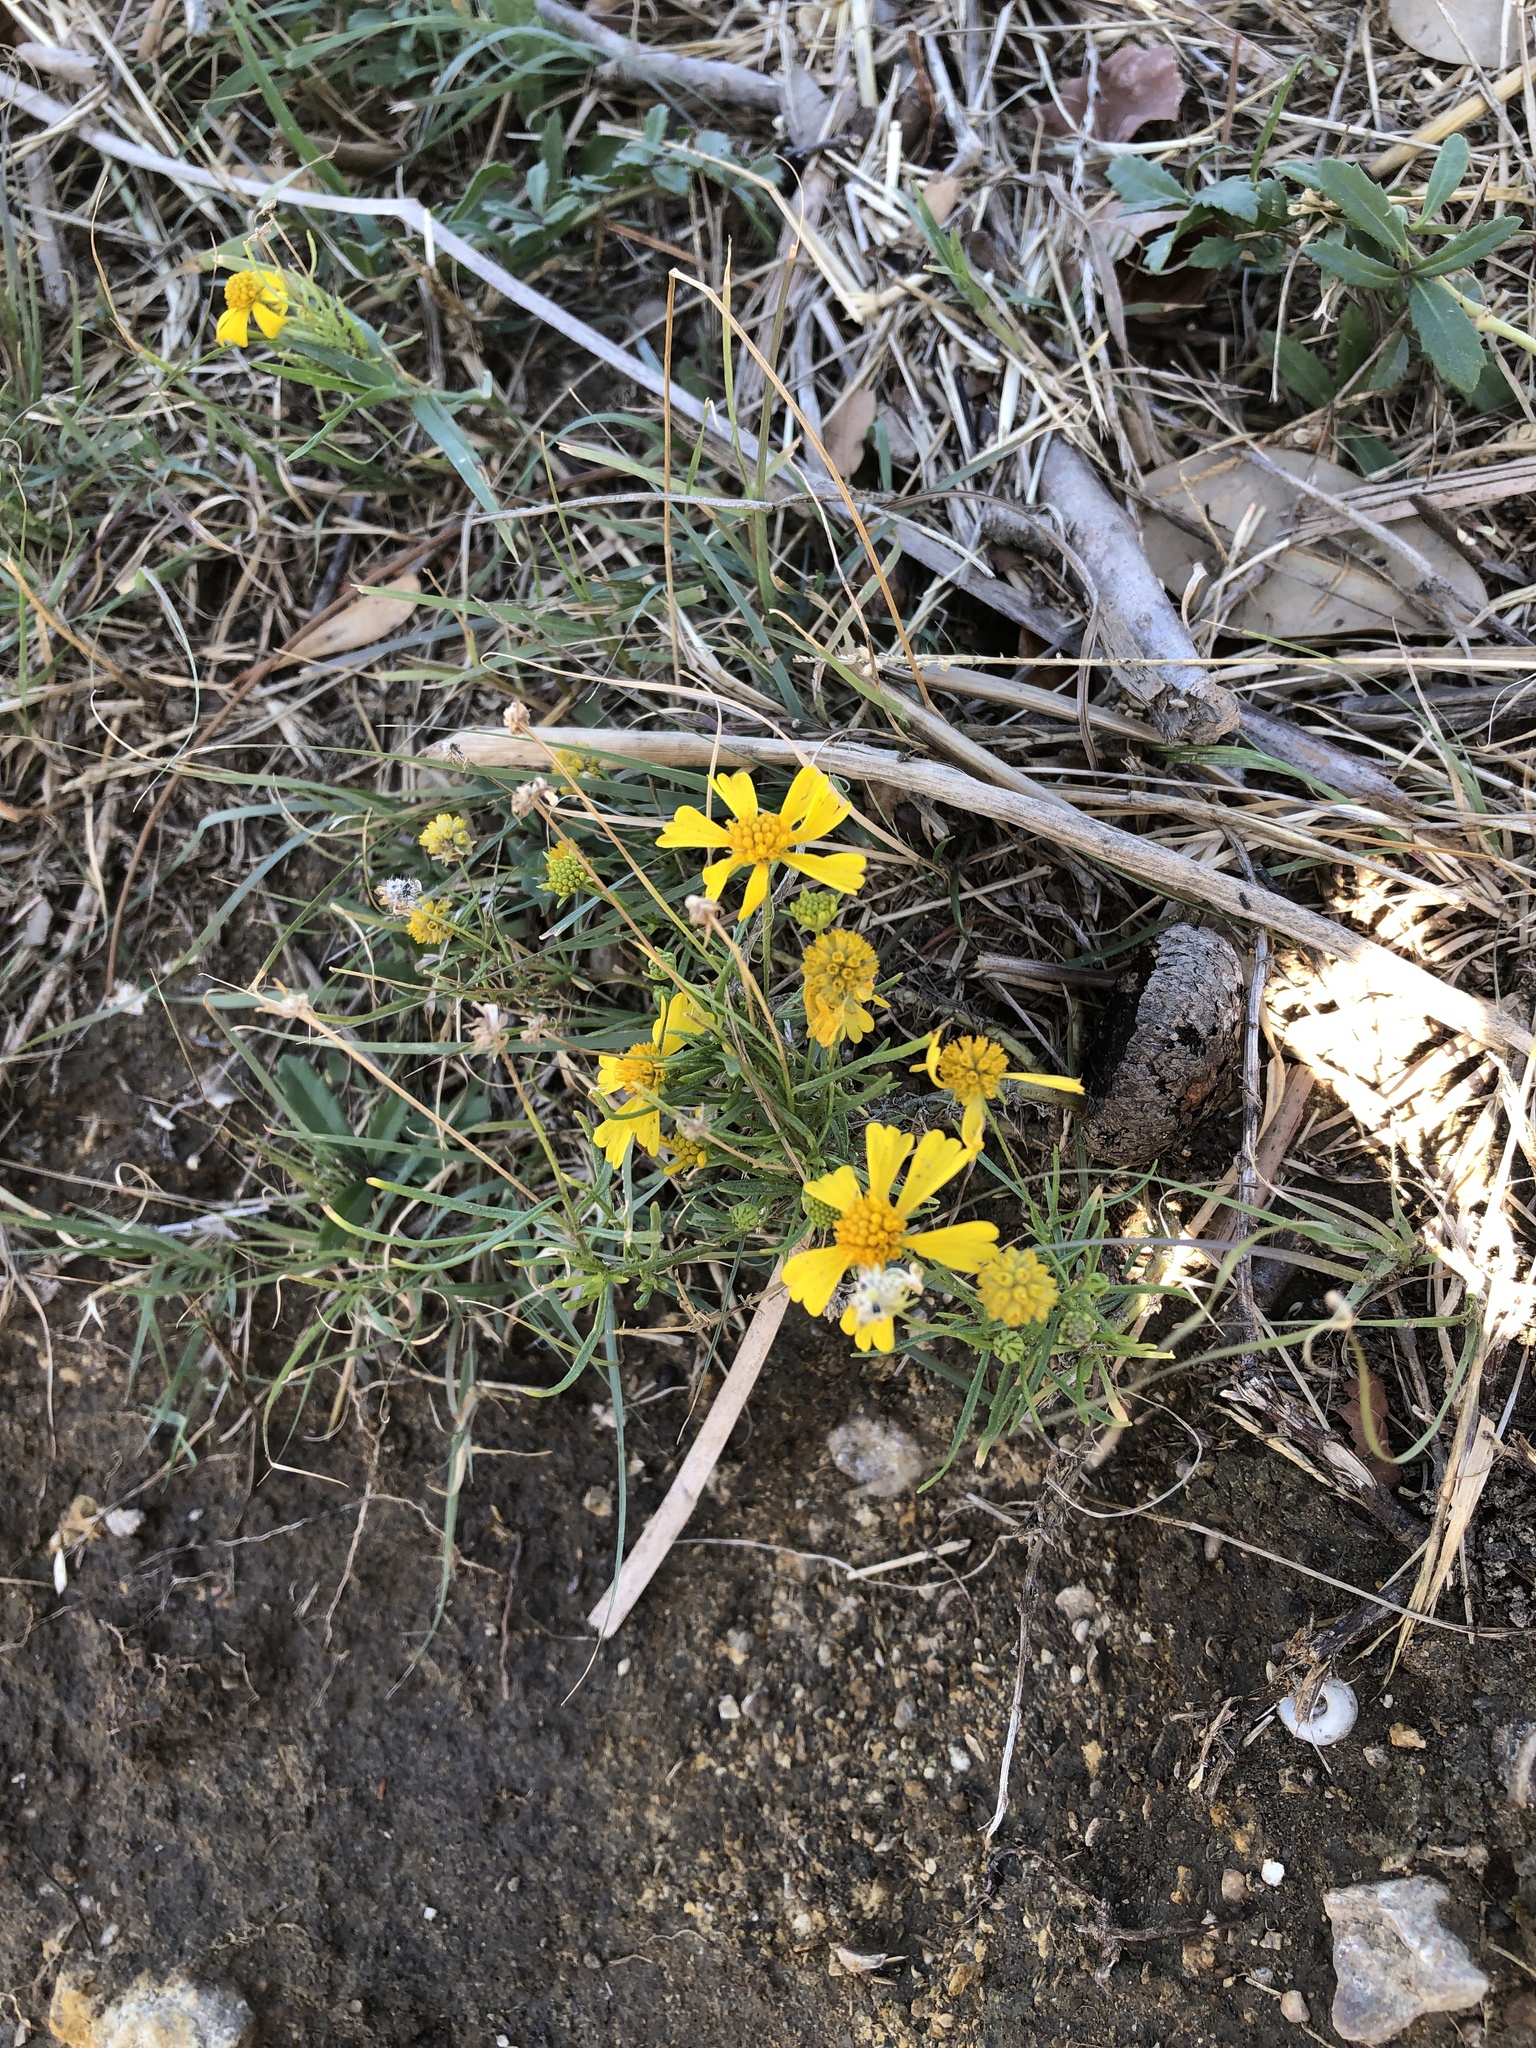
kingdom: Plantae
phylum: Tracheophyta
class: Magnoliopsida
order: Asterales
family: Asteraceae
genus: Helenium
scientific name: Helenium amarum
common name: Bitter sneezeweed
